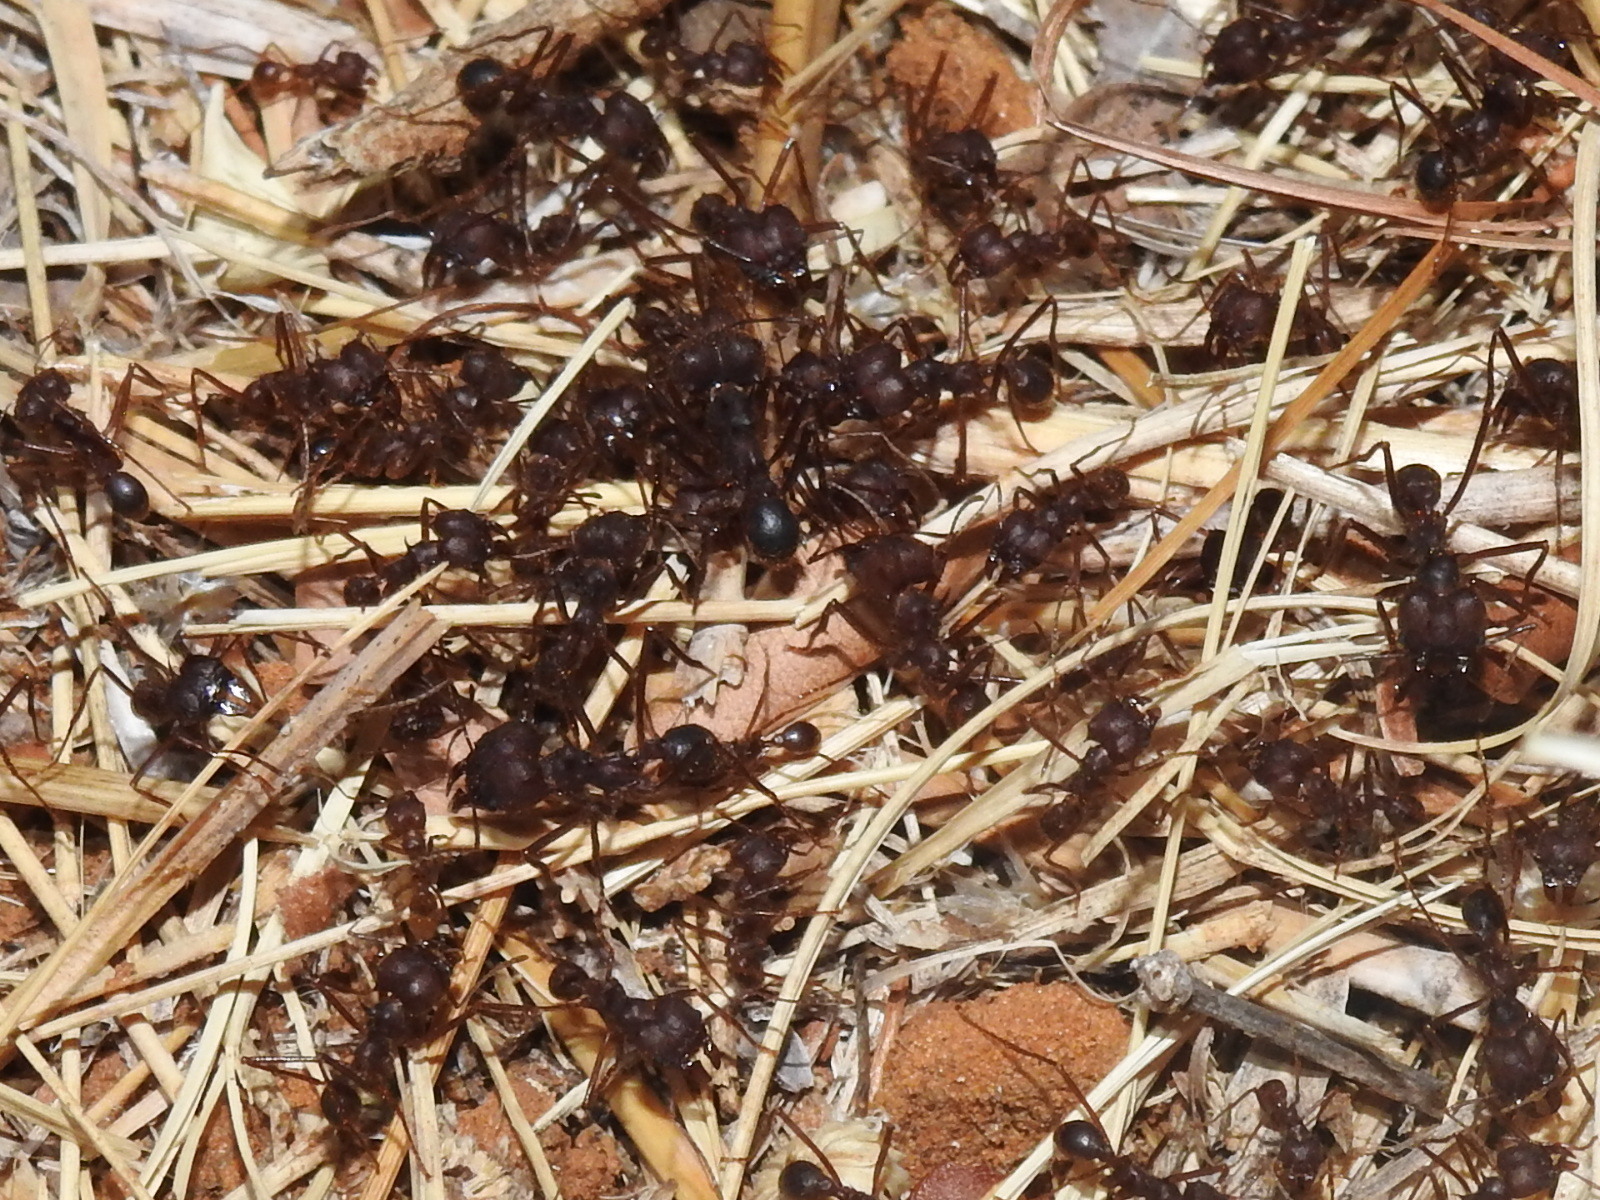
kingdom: Animalia
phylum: Arthropoda
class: Insecta
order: Hymenoptera
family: Formicidae
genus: Atta
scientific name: Atta texana
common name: Texas leafcutting ant
